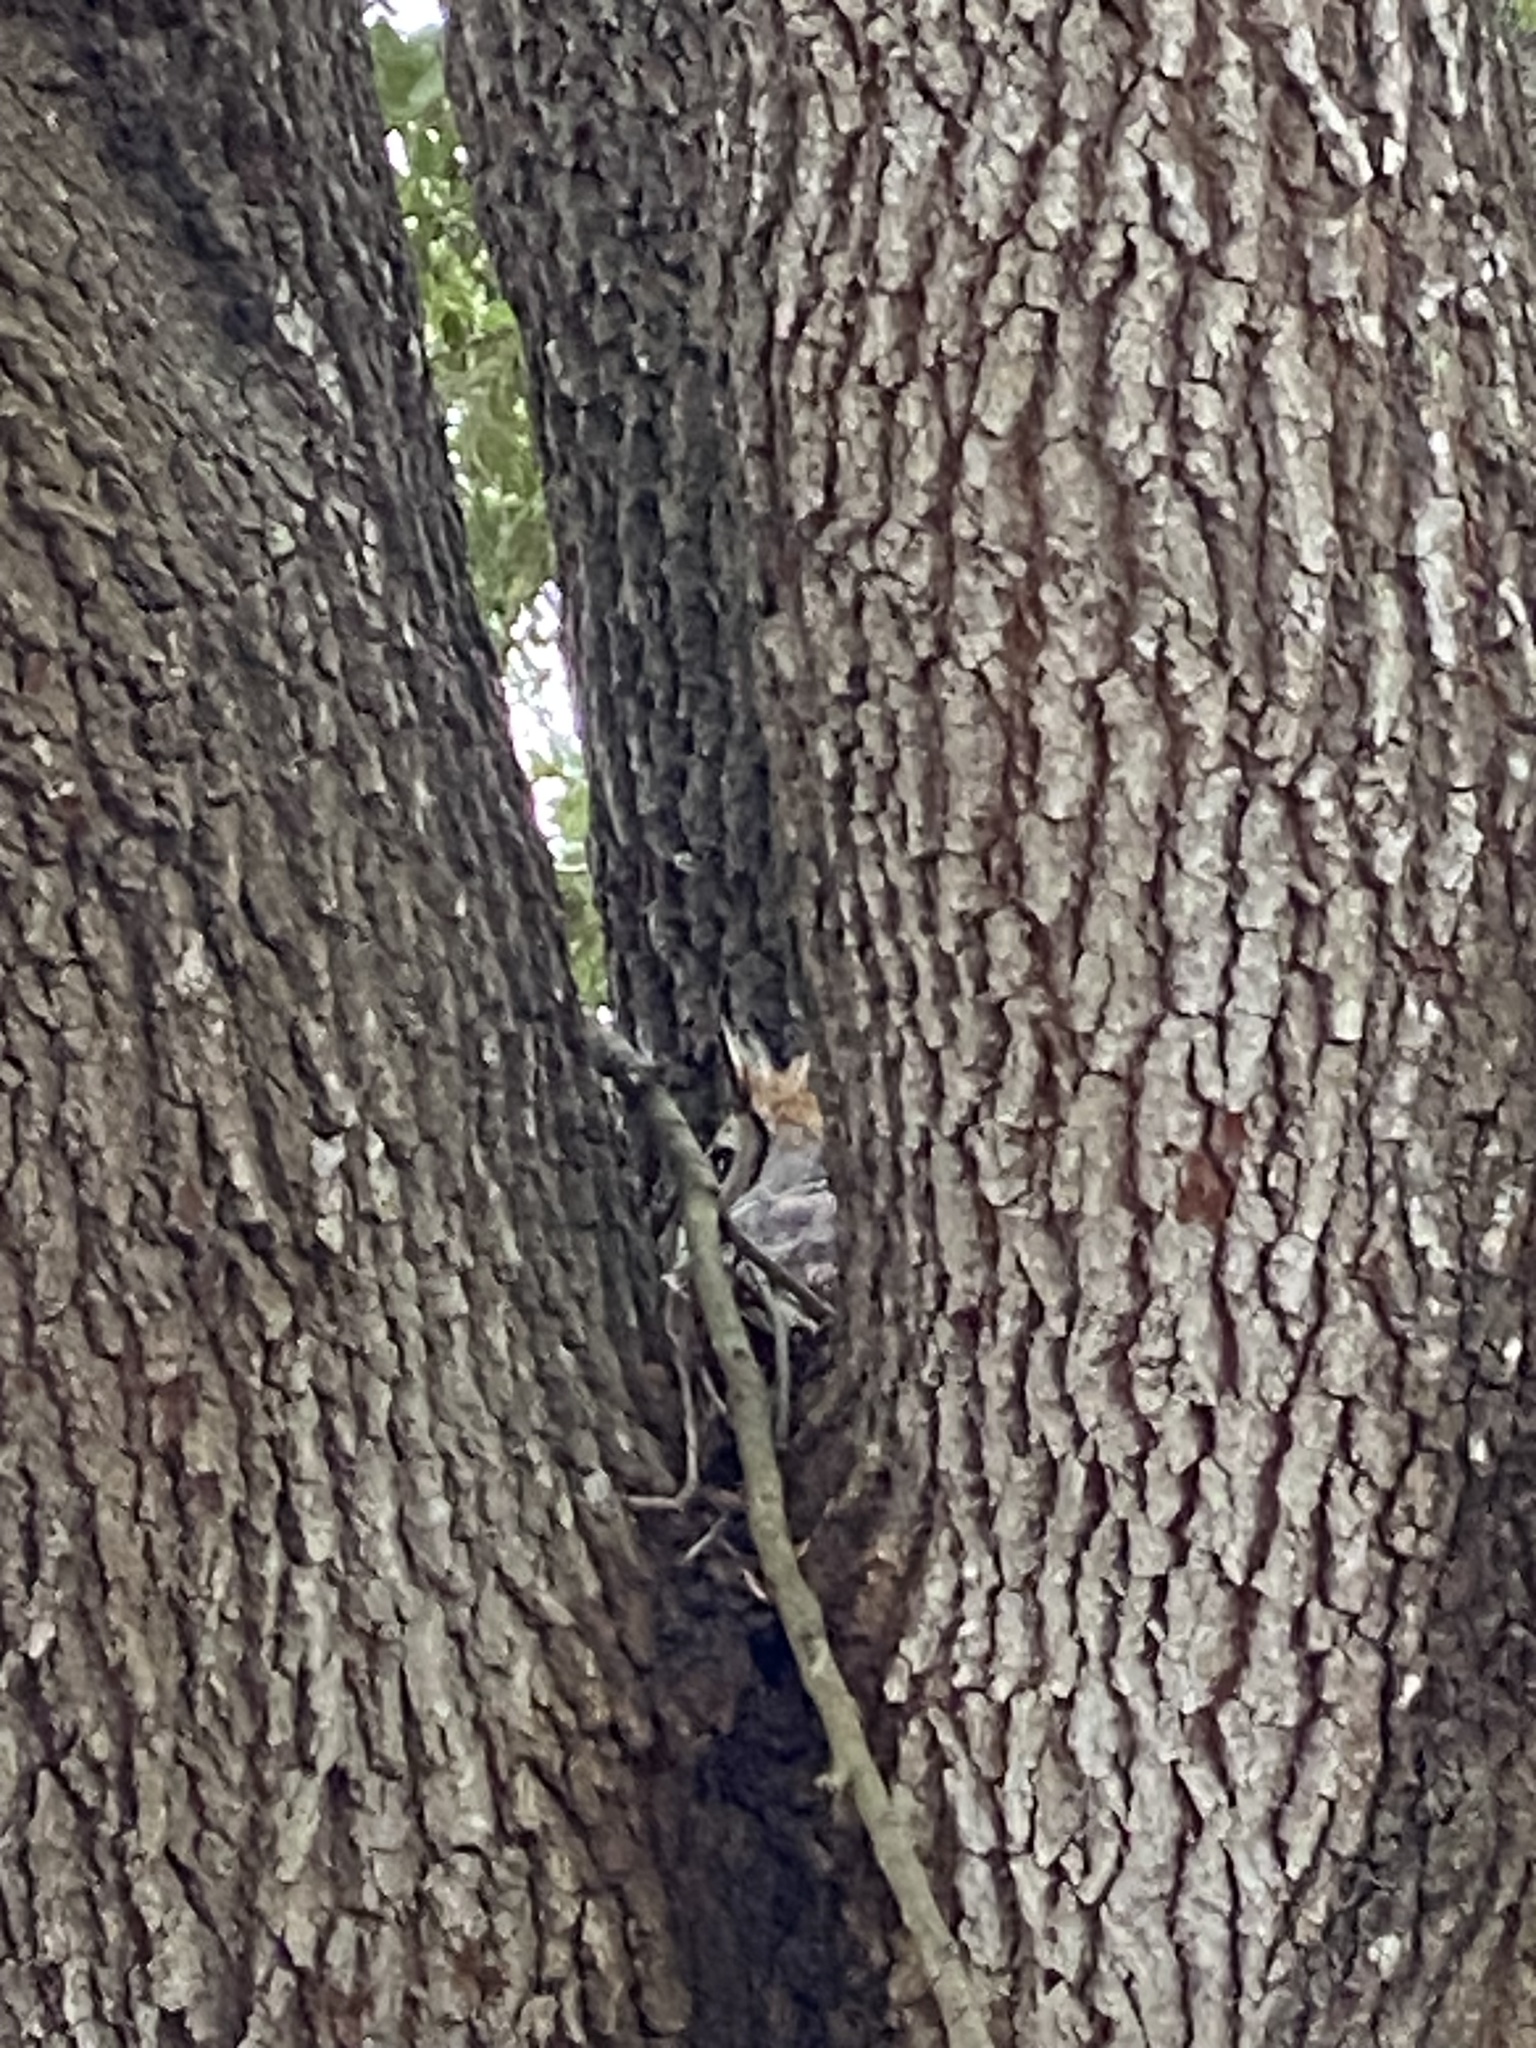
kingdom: Animalia
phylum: Chordata
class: Aves
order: Strigiformes
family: Strigidae
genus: Bubo
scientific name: Bubo virginianus
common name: Great horned owl
